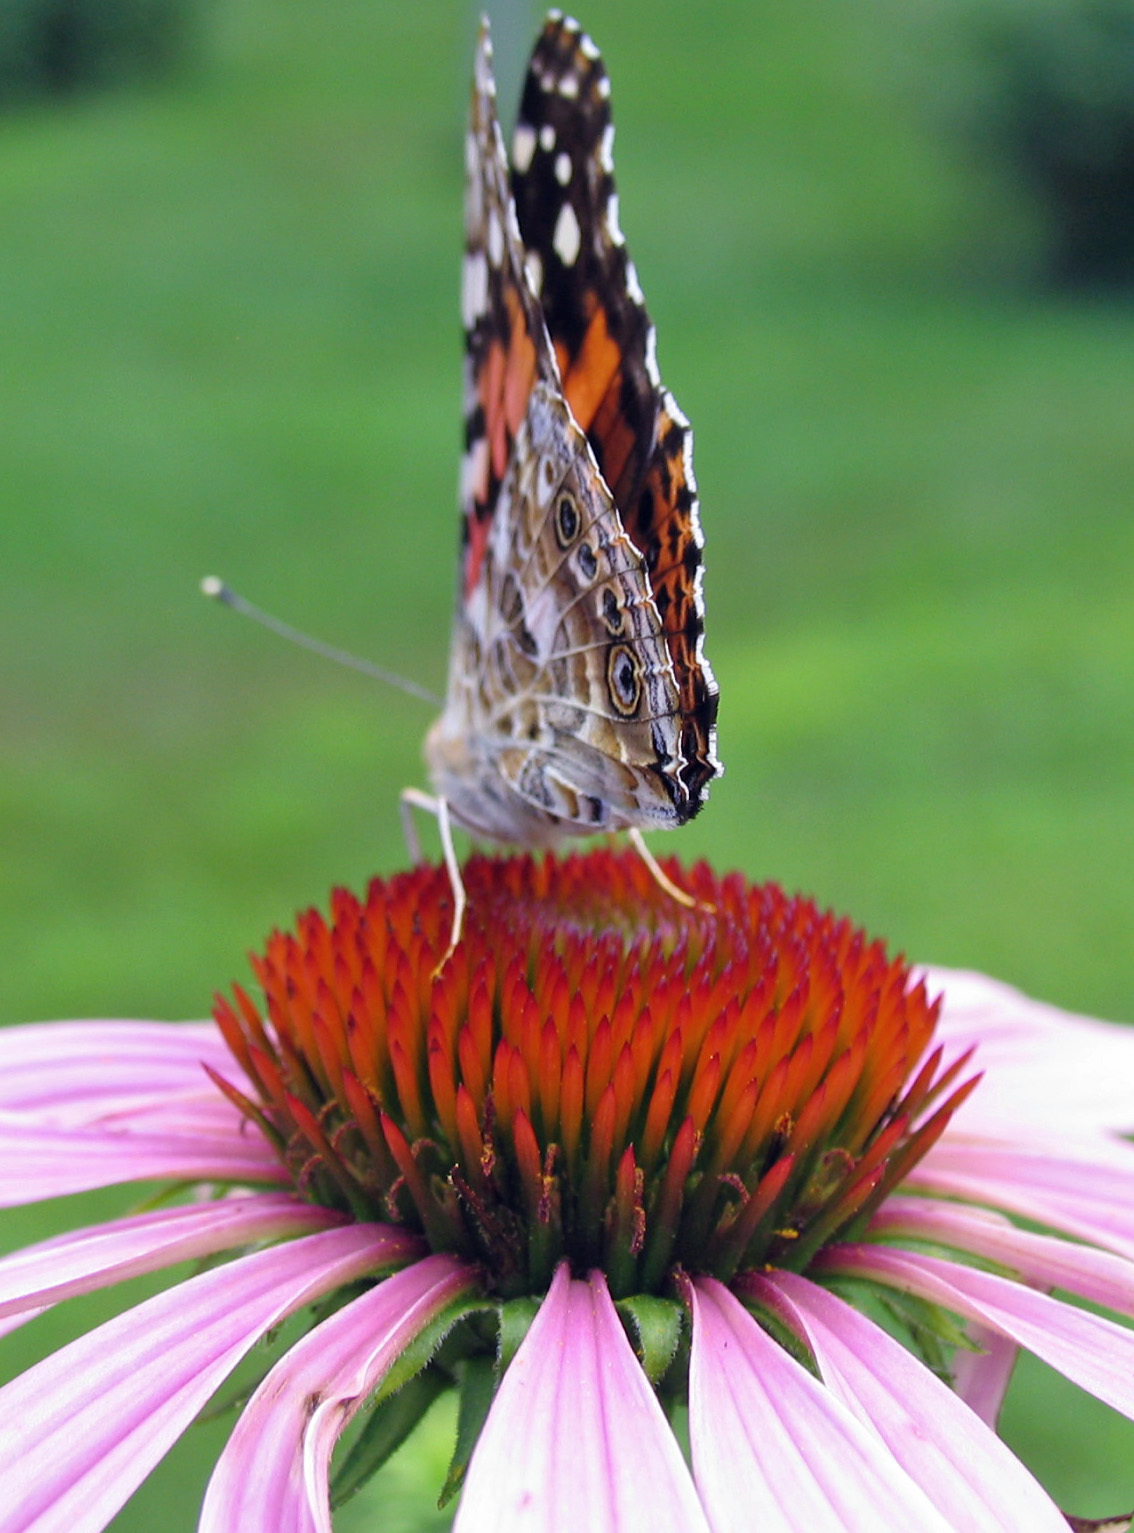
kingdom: Animalia
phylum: Arthropoda
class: Insecta
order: Lepidoptera
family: Nymphalidae
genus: Vanessa
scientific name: Vanessa cardui
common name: Painted lady
